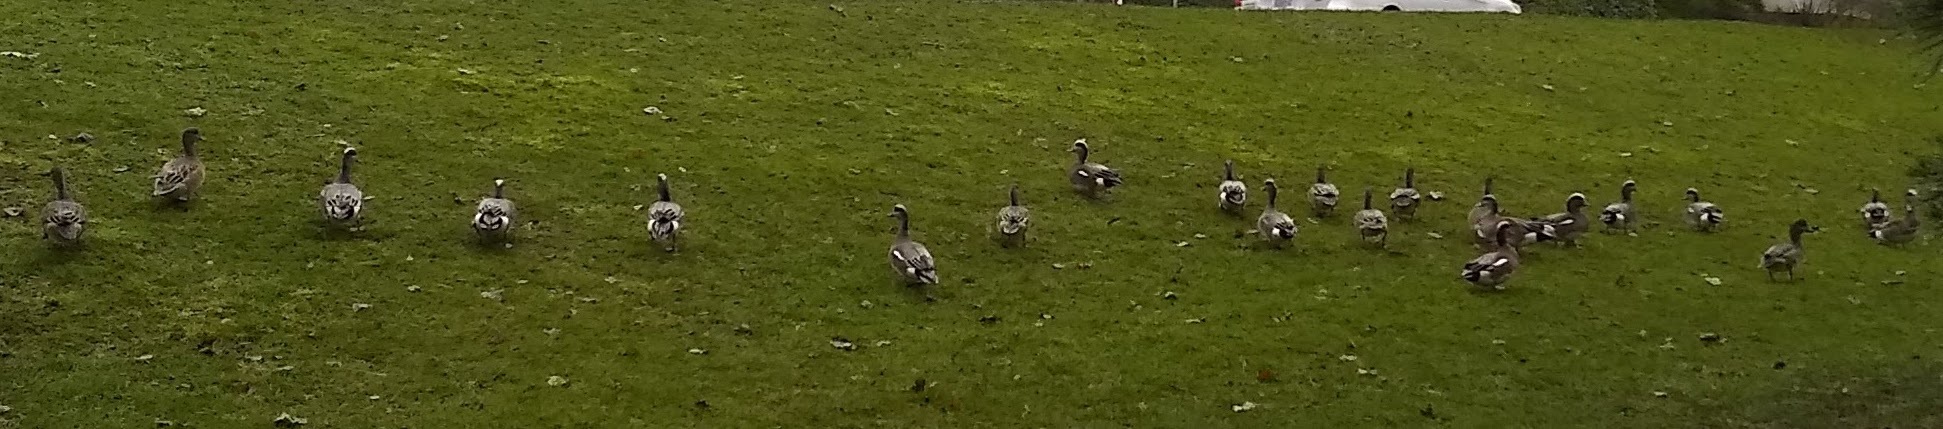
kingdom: Animalia
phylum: Chordata
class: Aves
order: Anseriformes
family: Anatidae
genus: Mareca
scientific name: Mareca americana
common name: American wigeon
